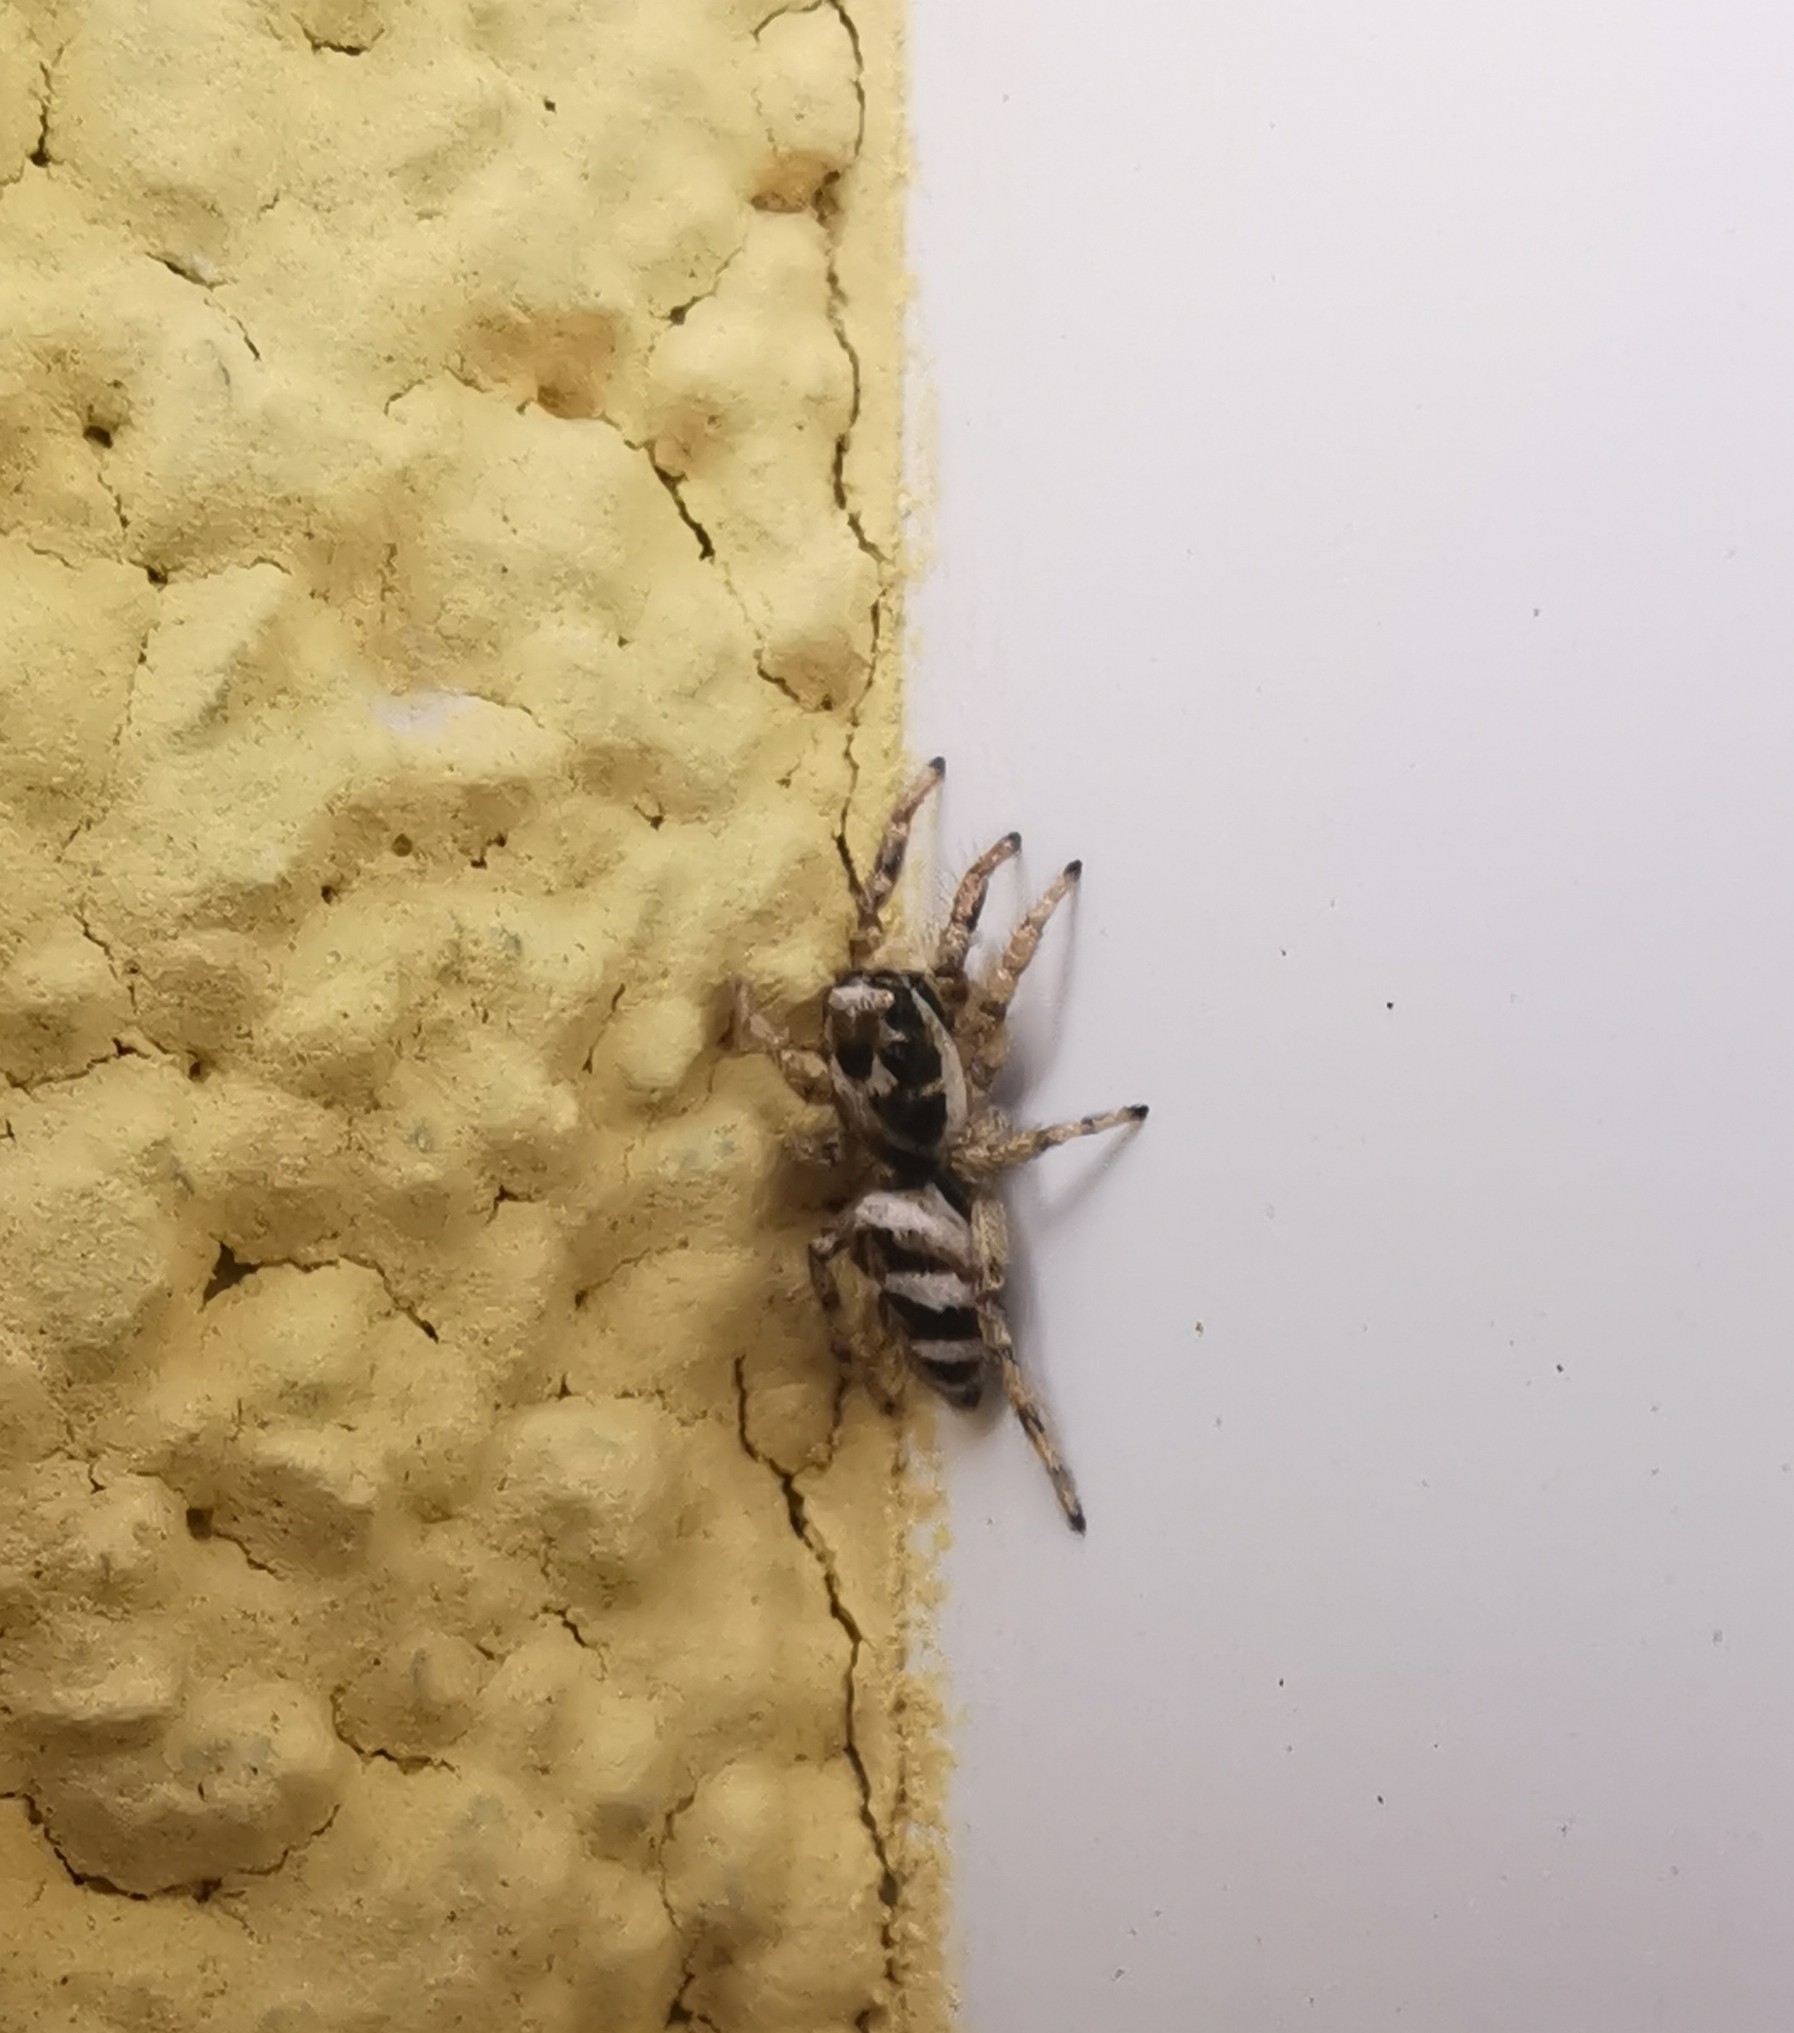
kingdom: Animalia
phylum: Arthropoda
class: Arachnida
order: Araneae
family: Salticidae
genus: Salticus
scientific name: Salticus scenicus
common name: Zebra jumper
